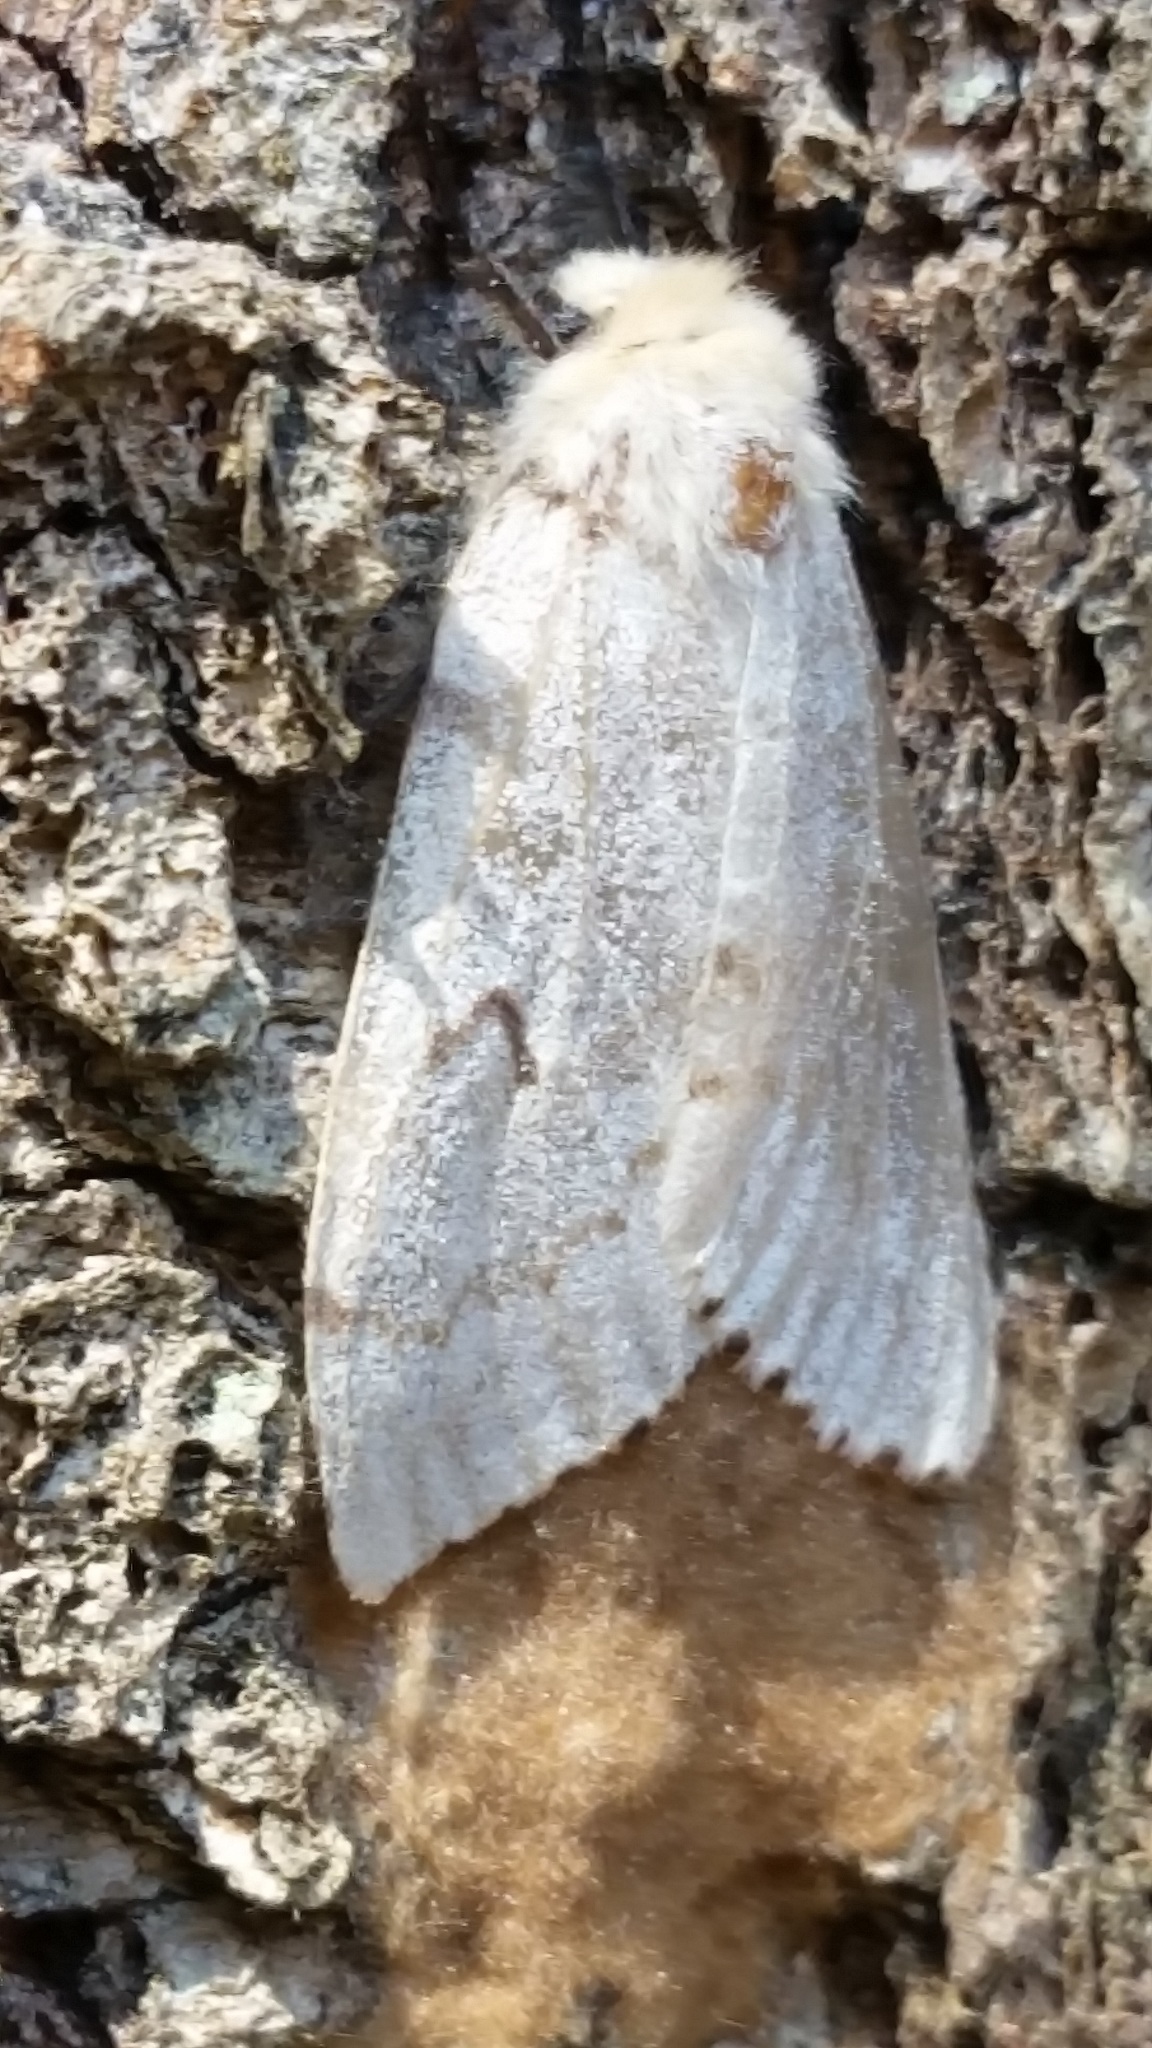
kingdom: Animalia
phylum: Arthropoda
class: Insecta
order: Lepidoptera
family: Erebidae
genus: Lymantria
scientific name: Lymantria dispar
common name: Gypsy moth
